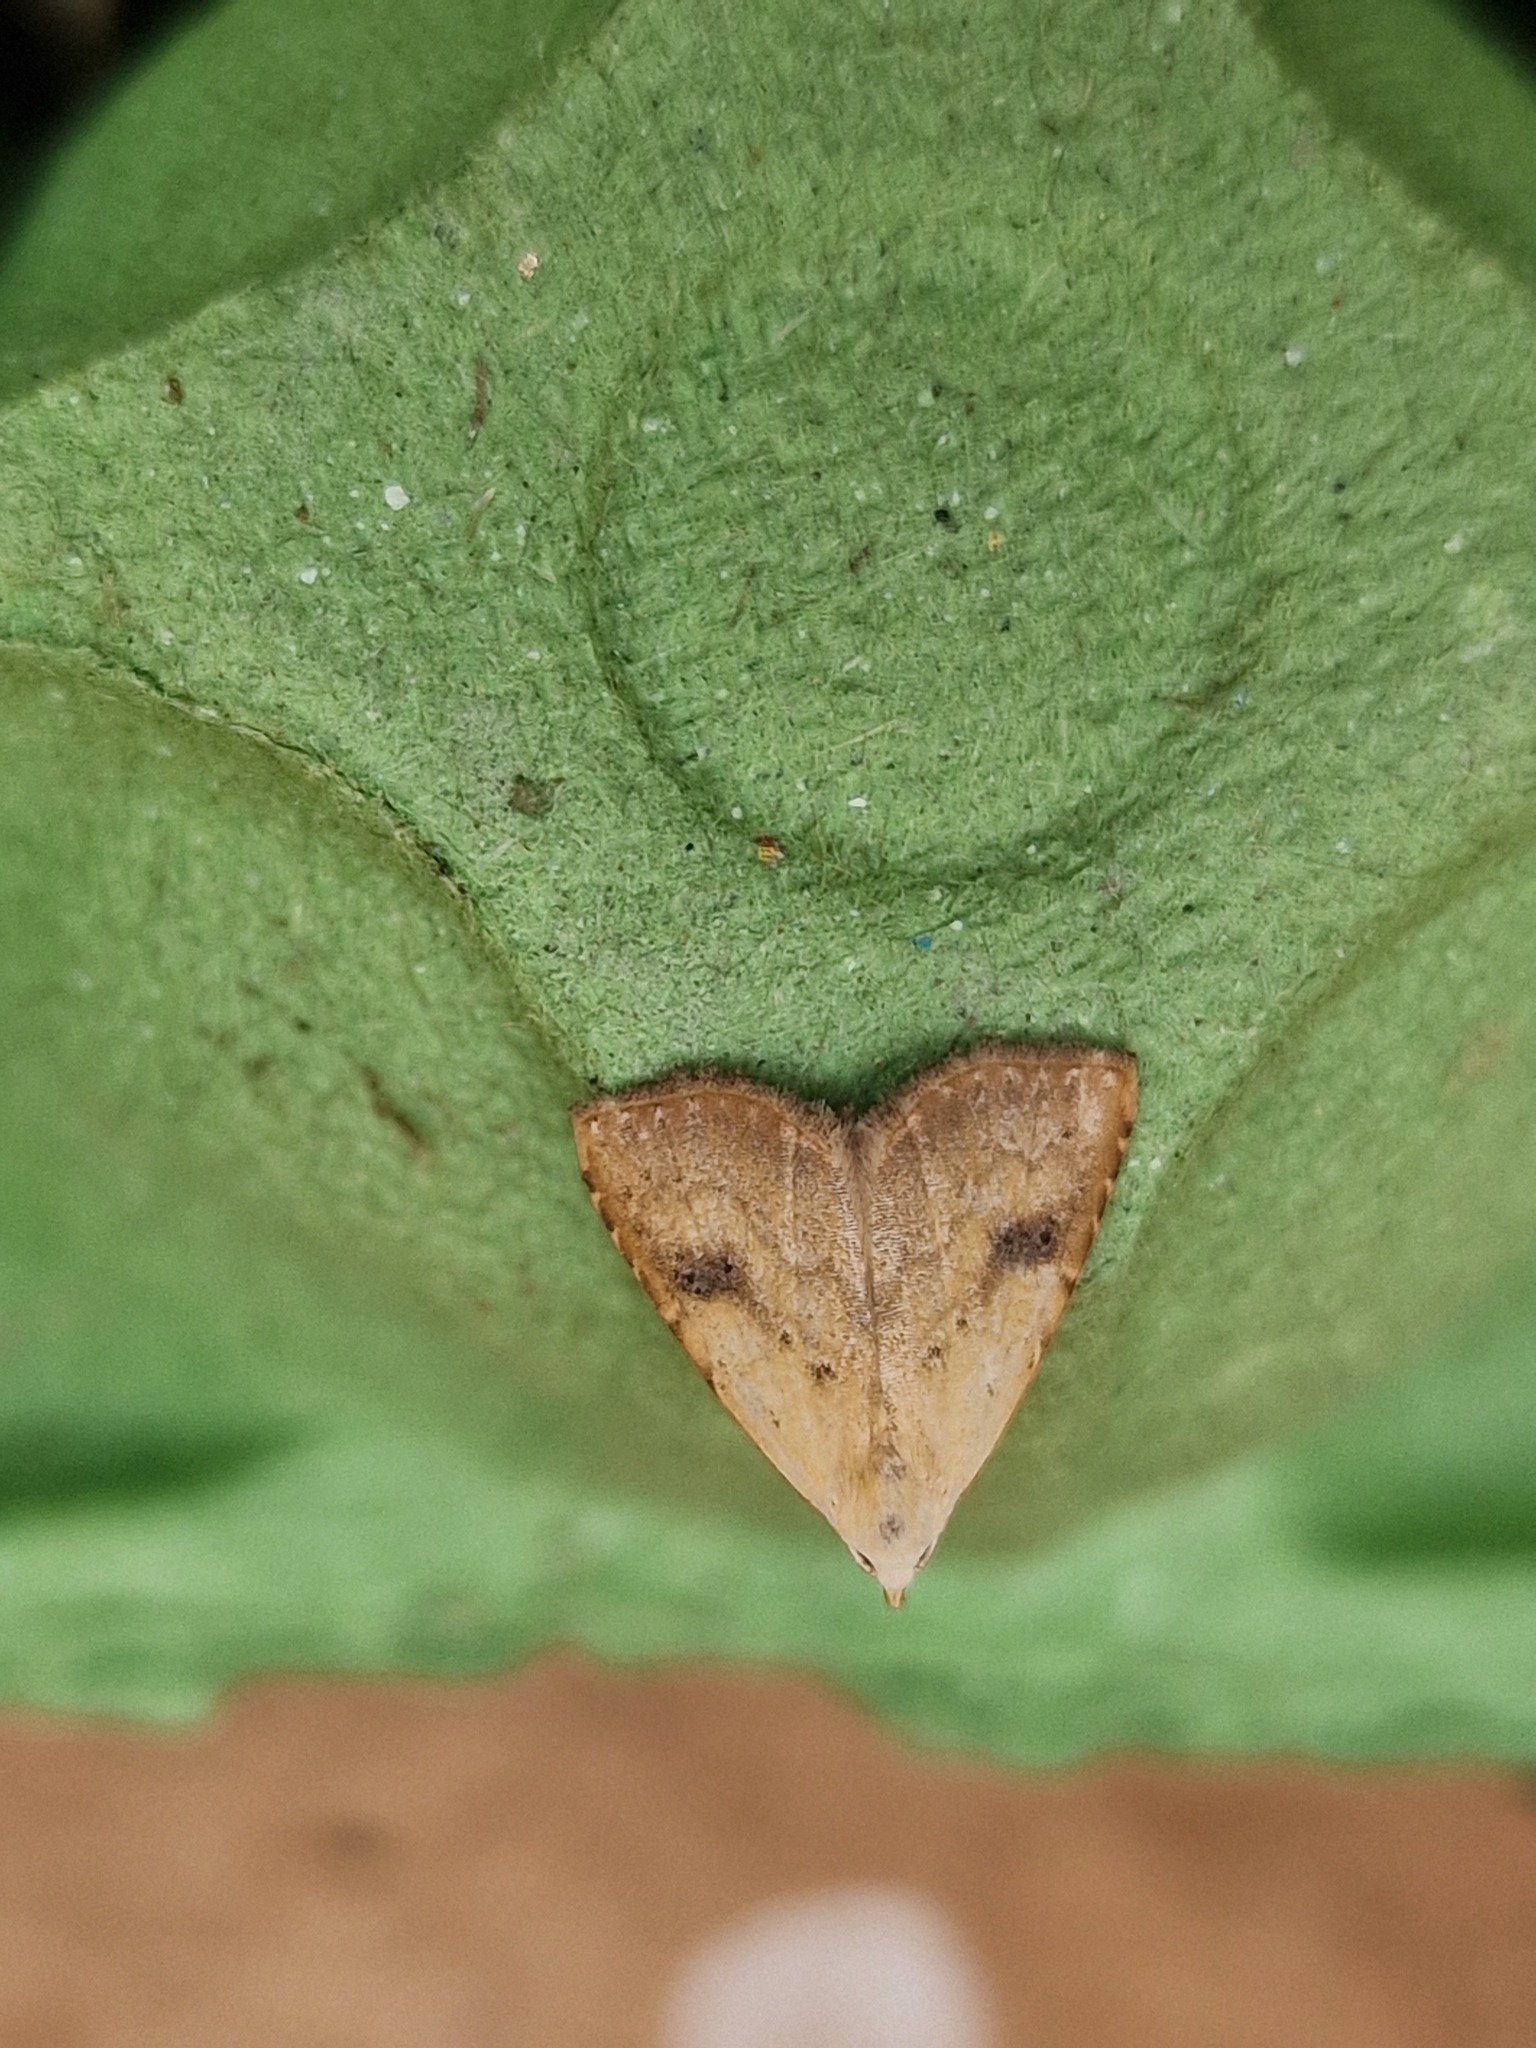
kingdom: Animalia
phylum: Arthropoda
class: Insecta
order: Lepidoptera
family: Erebidae
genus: Rivula
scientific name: Rivula sericealis
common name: Straw dot
